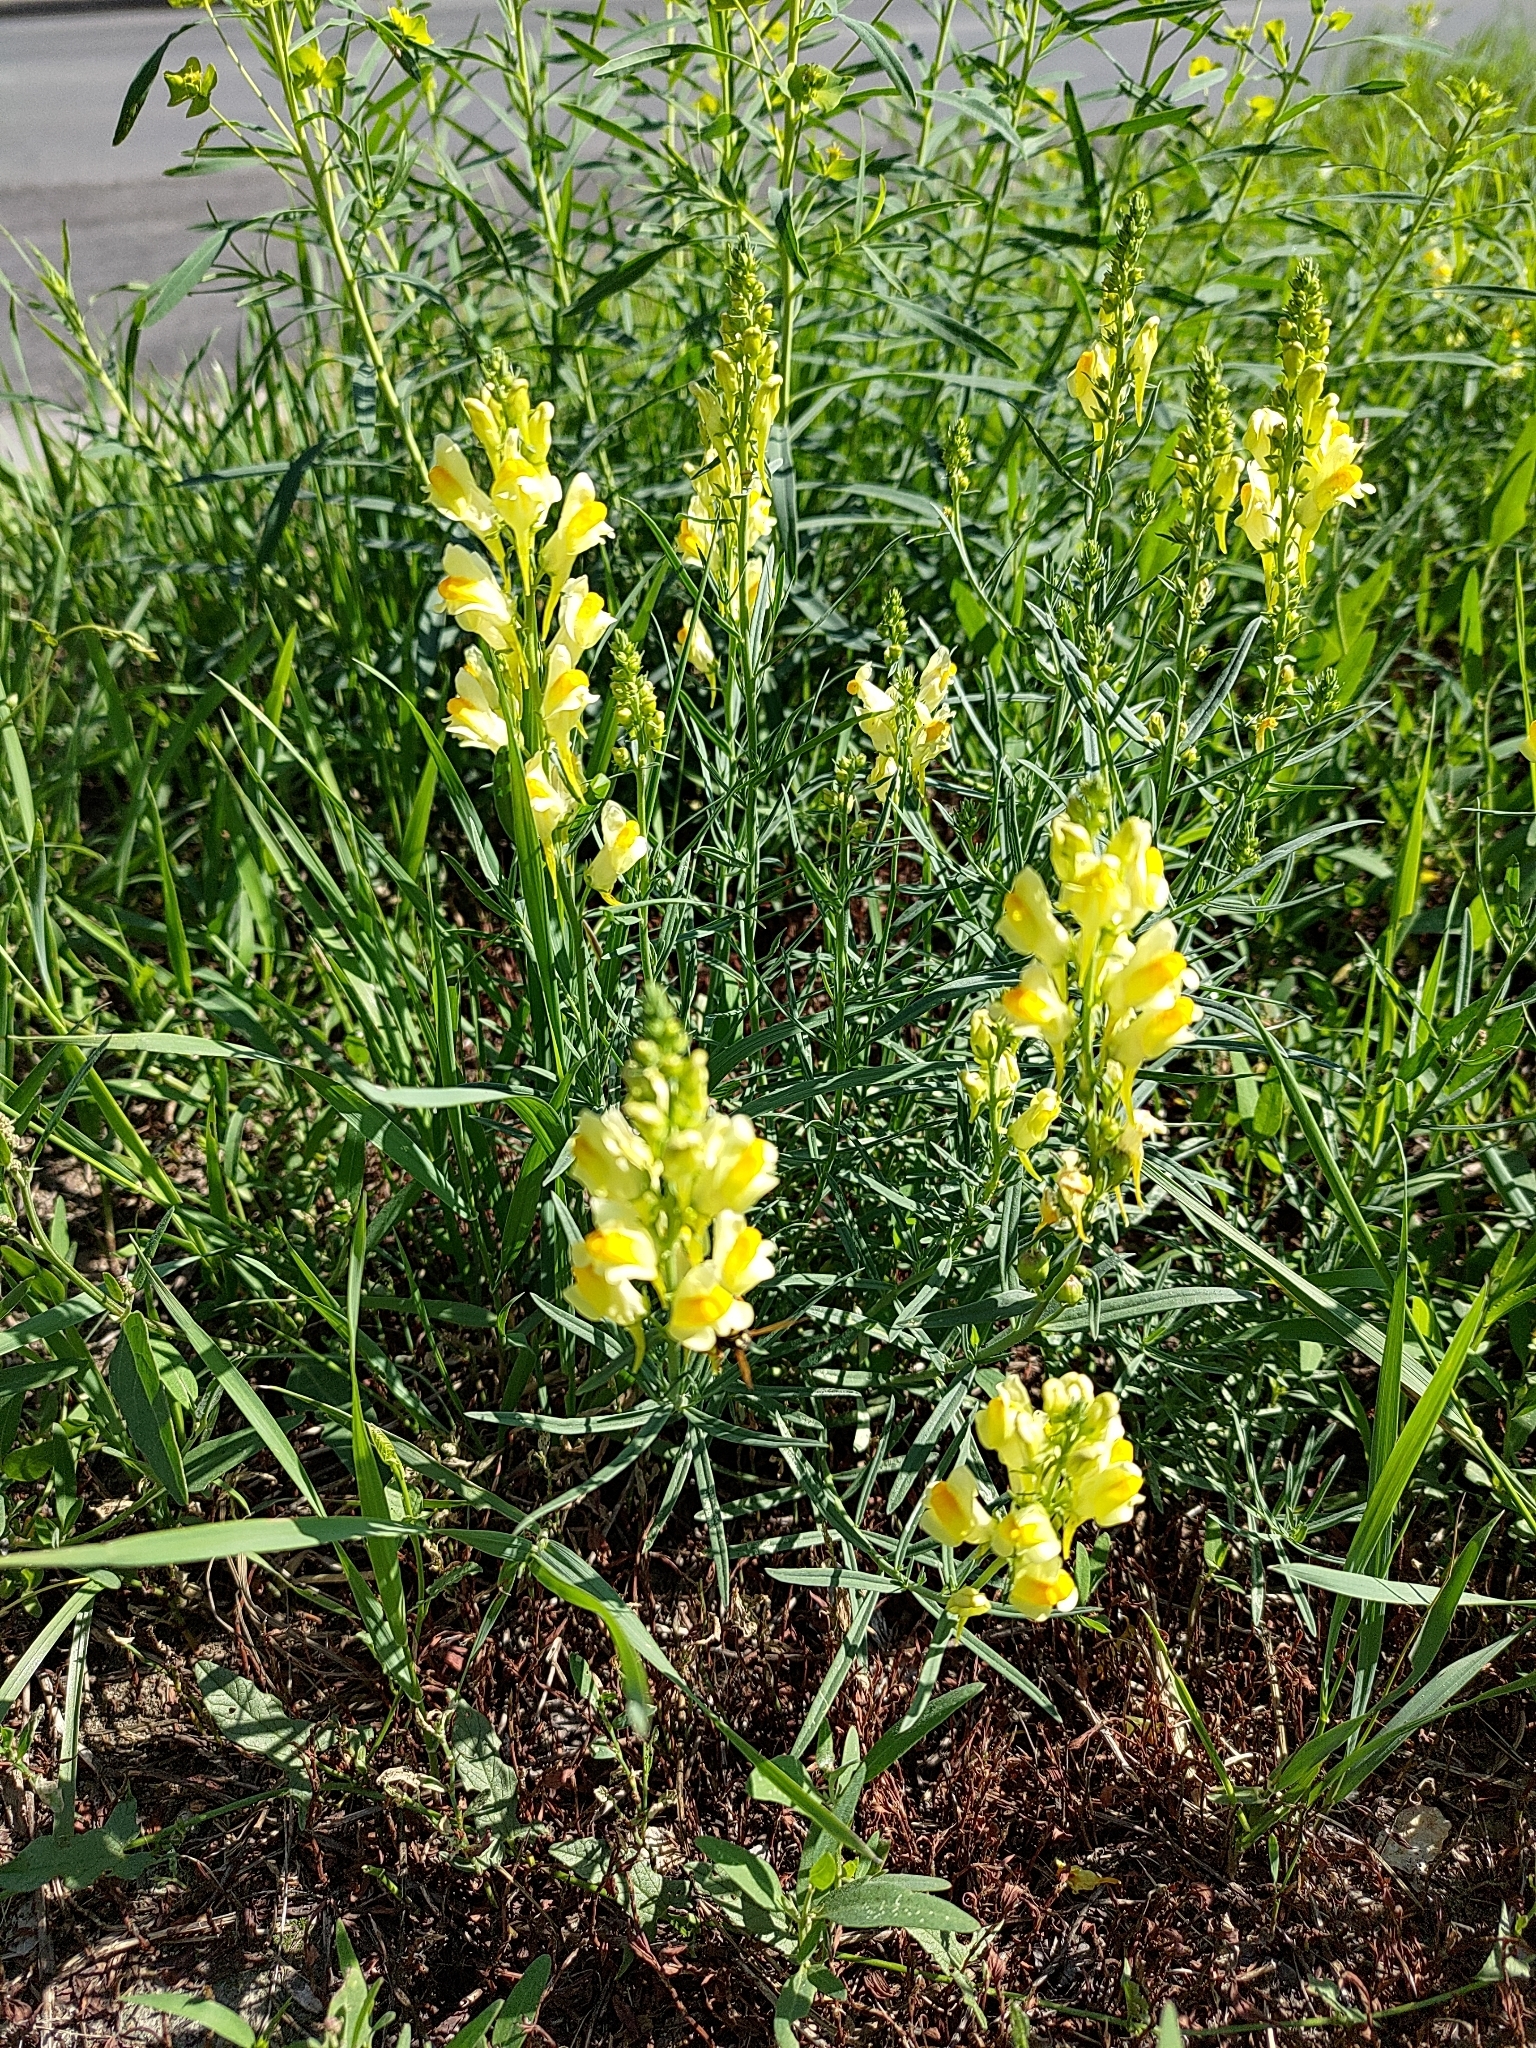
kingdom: Plantae
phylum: Tracheophyta
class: Magnoliopsida
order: Lamiales
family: Plantaginaceae
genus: Linaria
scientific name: Linaria vulgaris
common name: Butter and eggs
